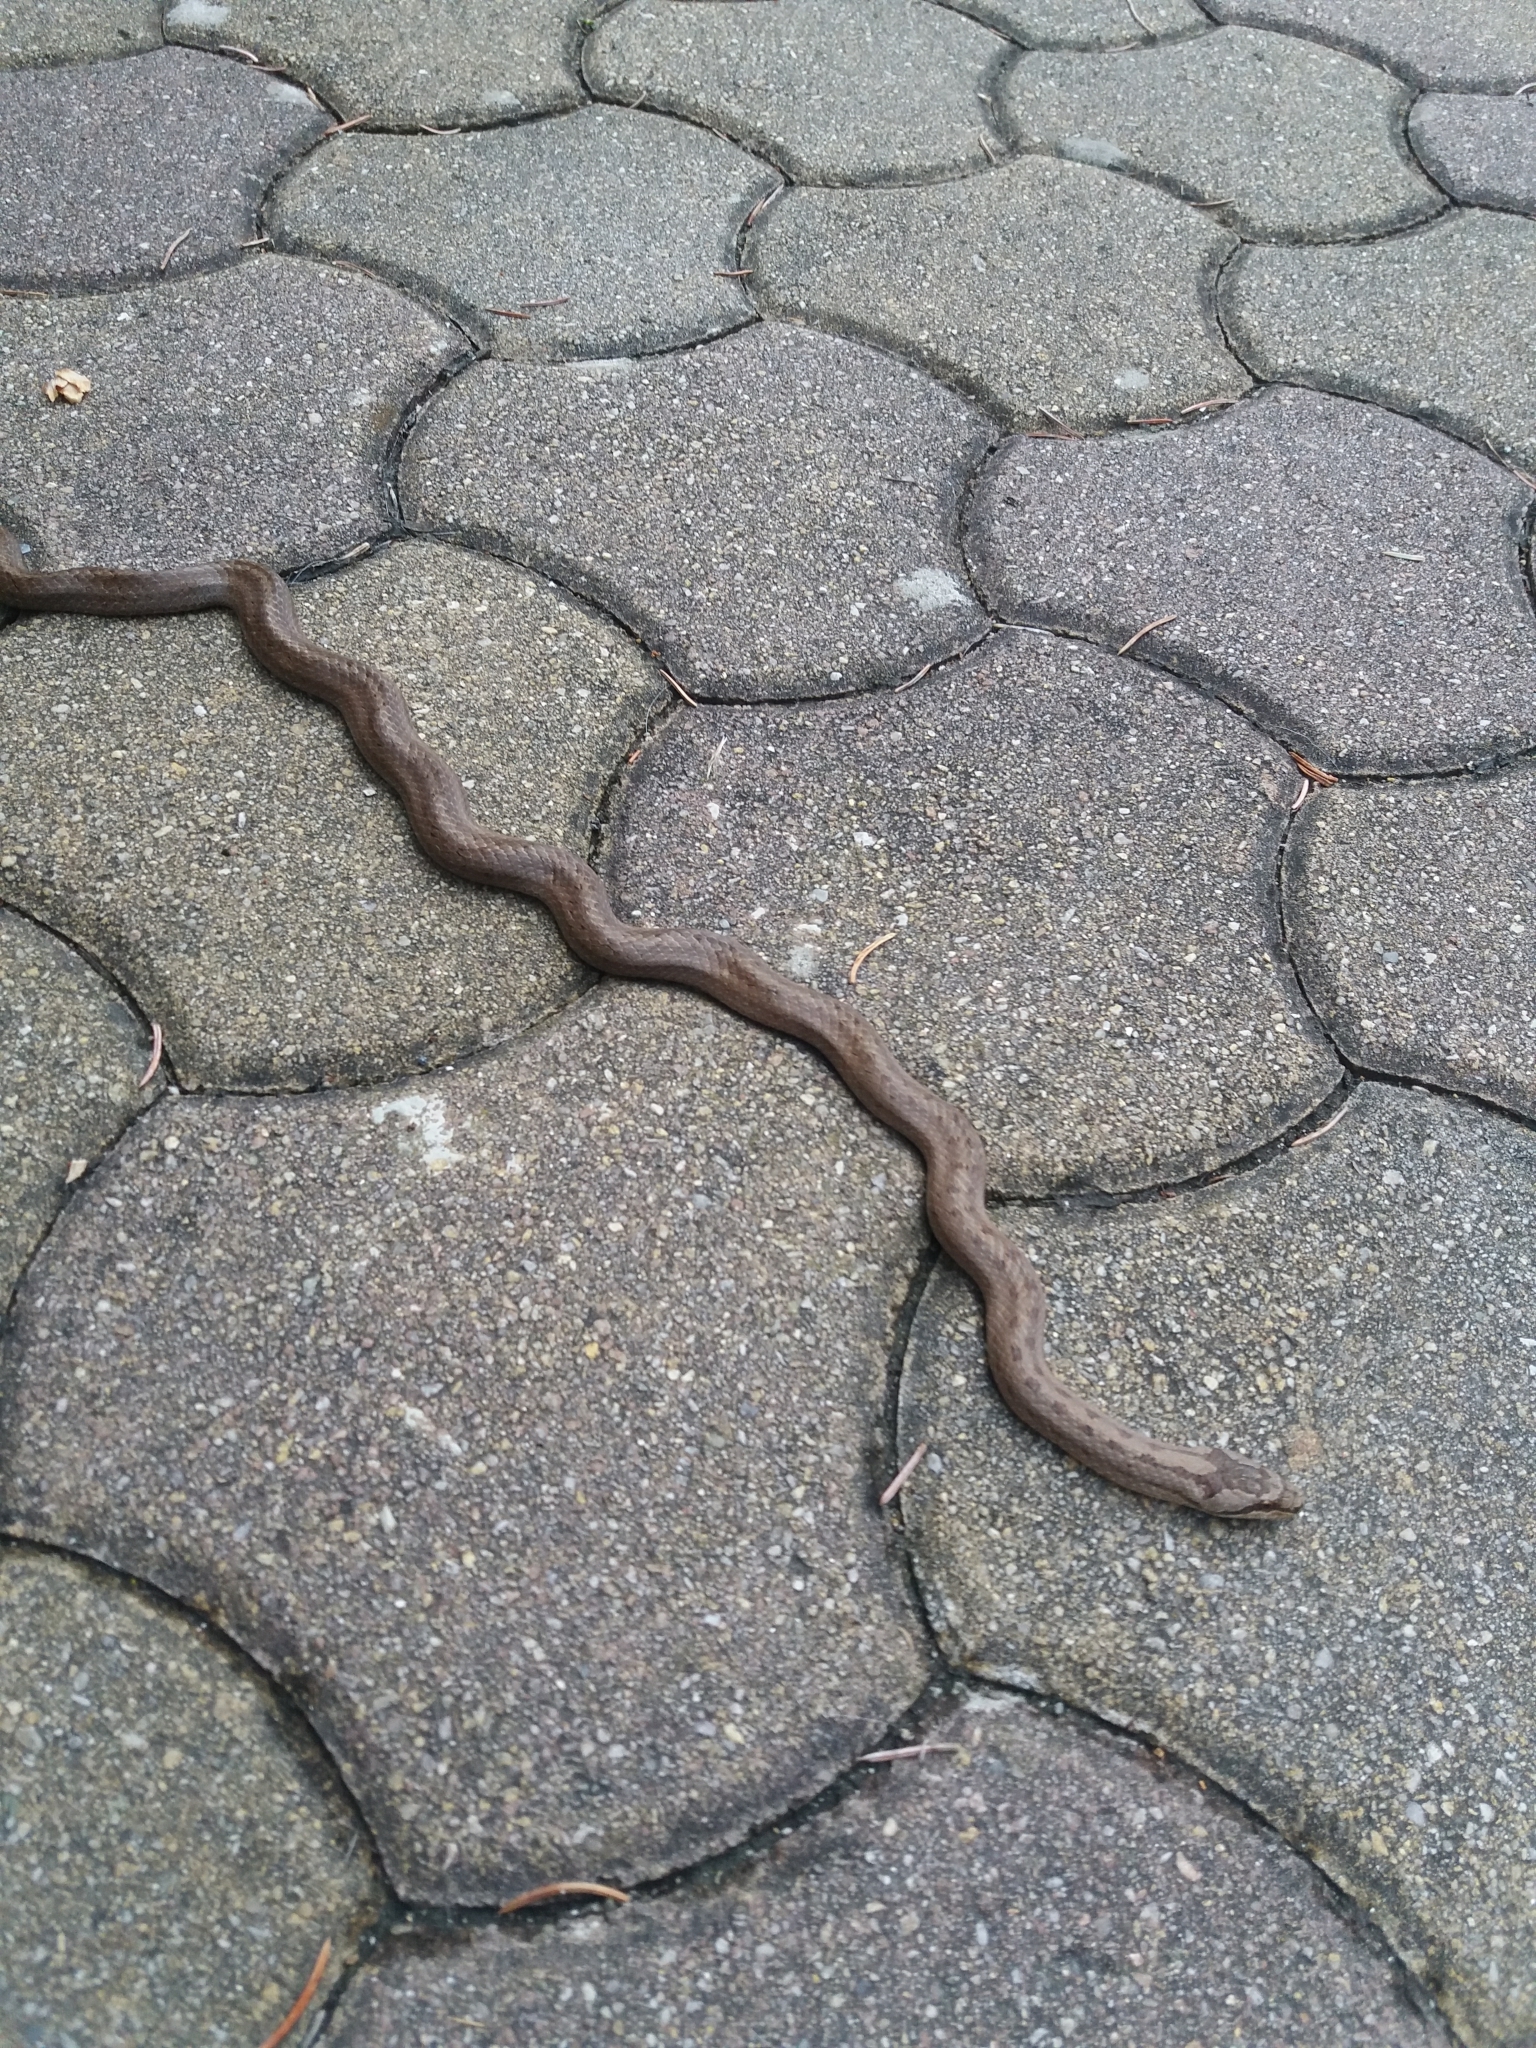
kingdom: Animalia
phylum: Chordata
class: Squamata
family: Colubridae
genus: Coronella
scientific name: Coronella austriaca
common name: Smooth snake
